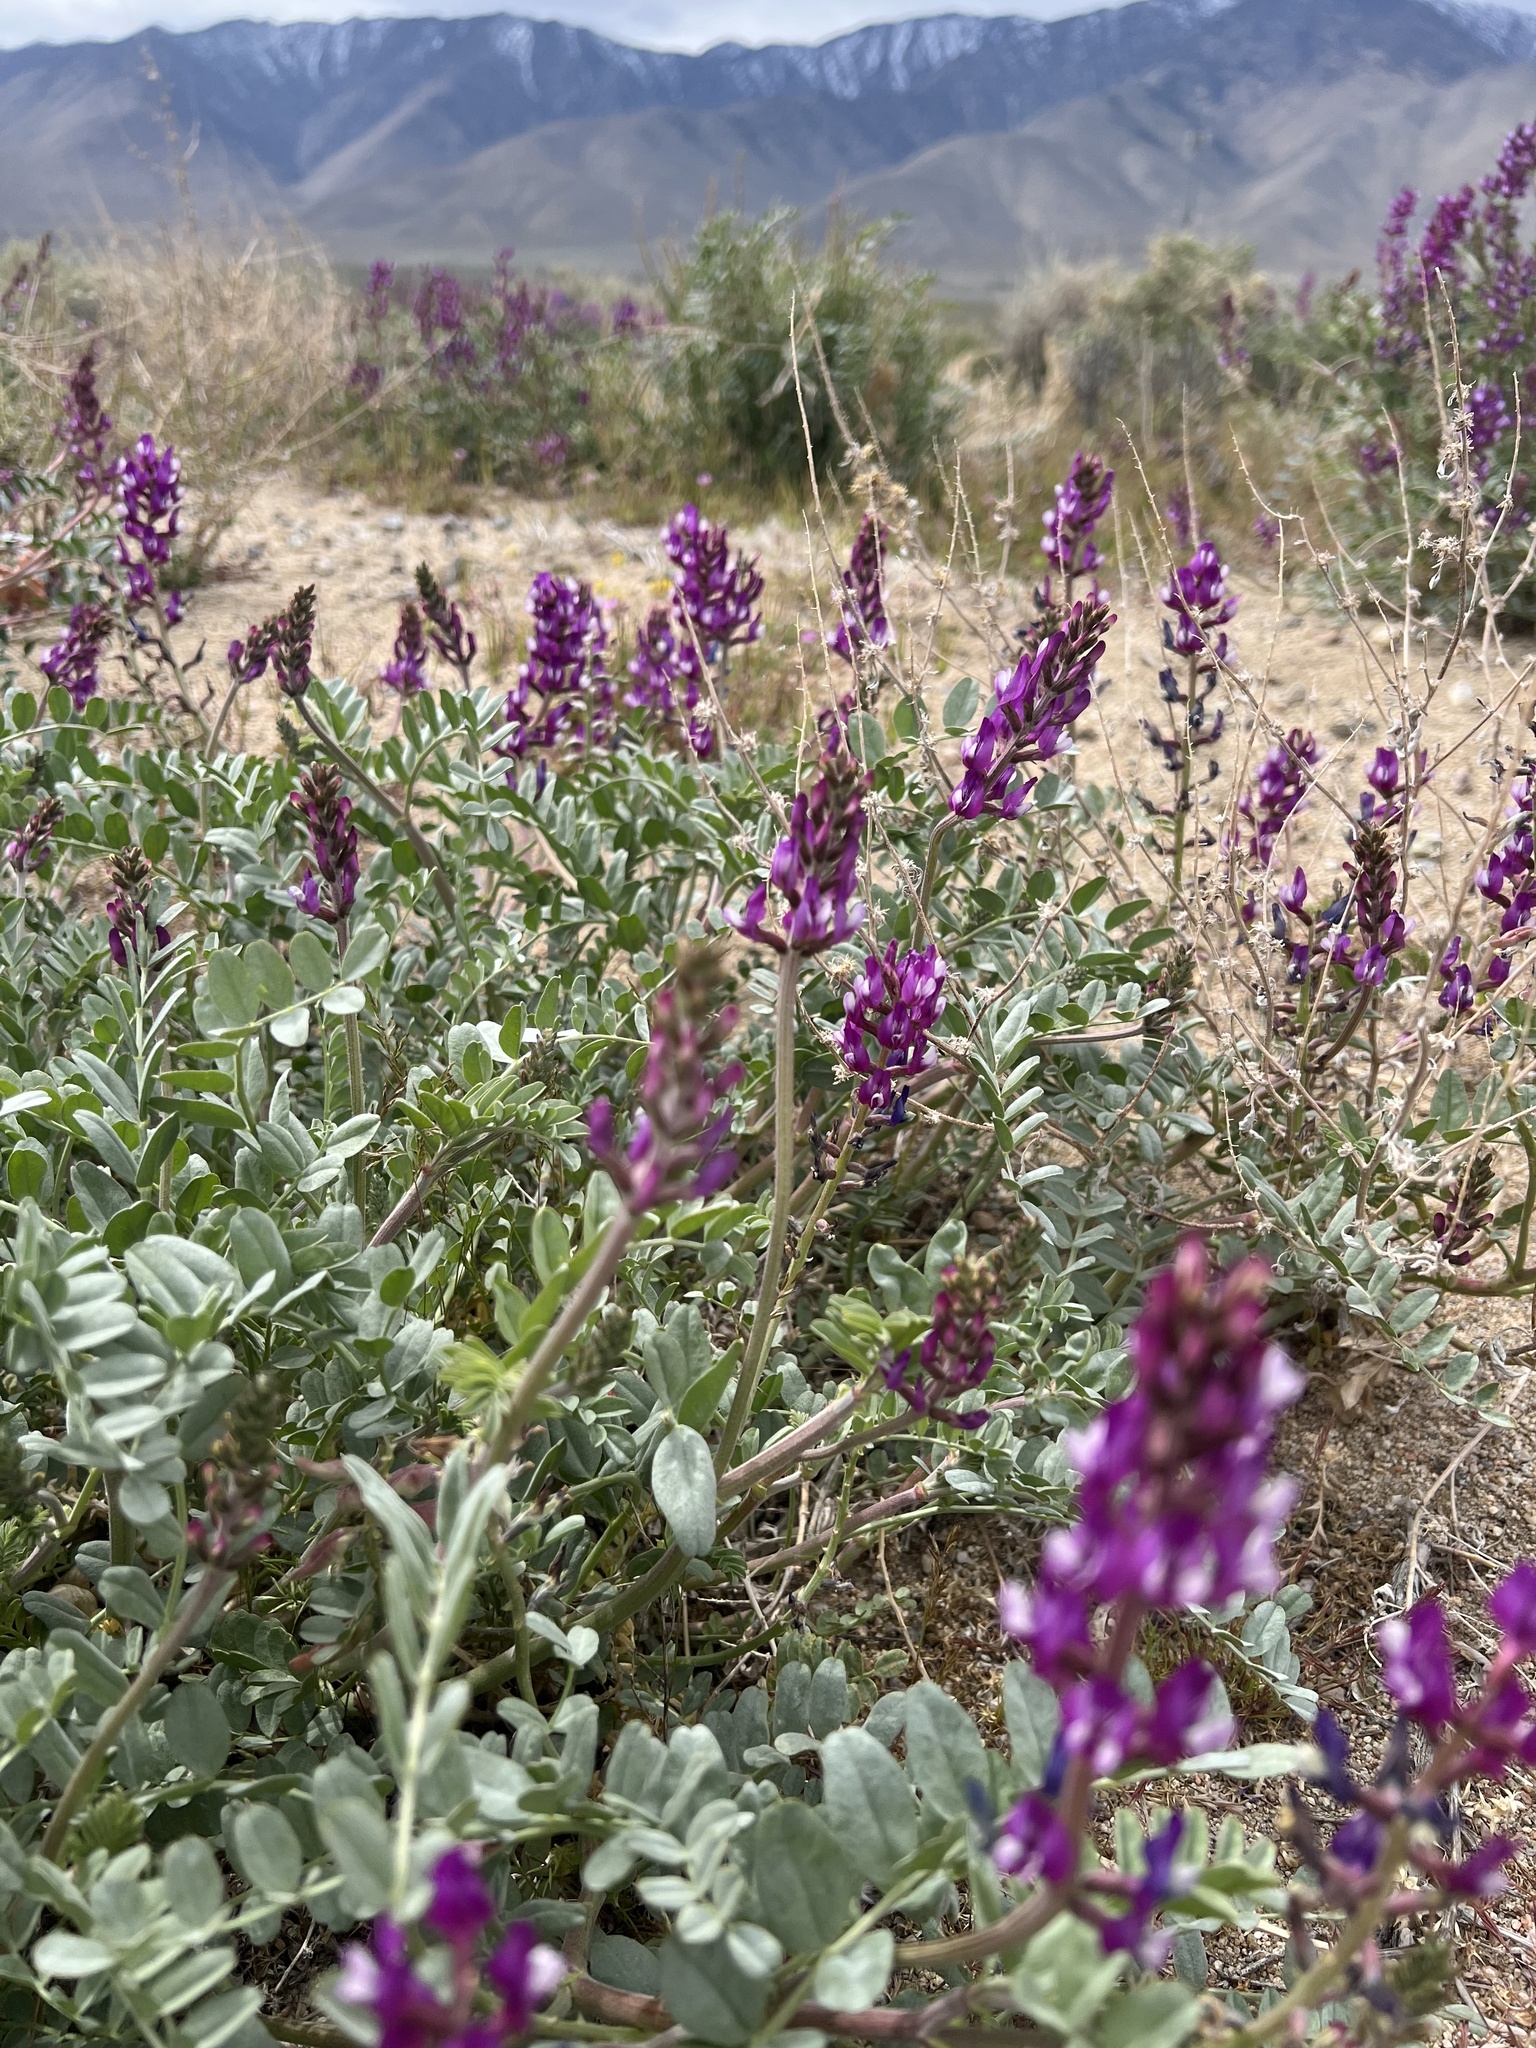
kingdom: Plantae
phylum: Tracheophyta
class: Magnoliopsida
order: Fabales
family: Fabaceae
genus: Astragalus
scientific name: Astragalus lentiginosus
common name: Freckled milkvetch
